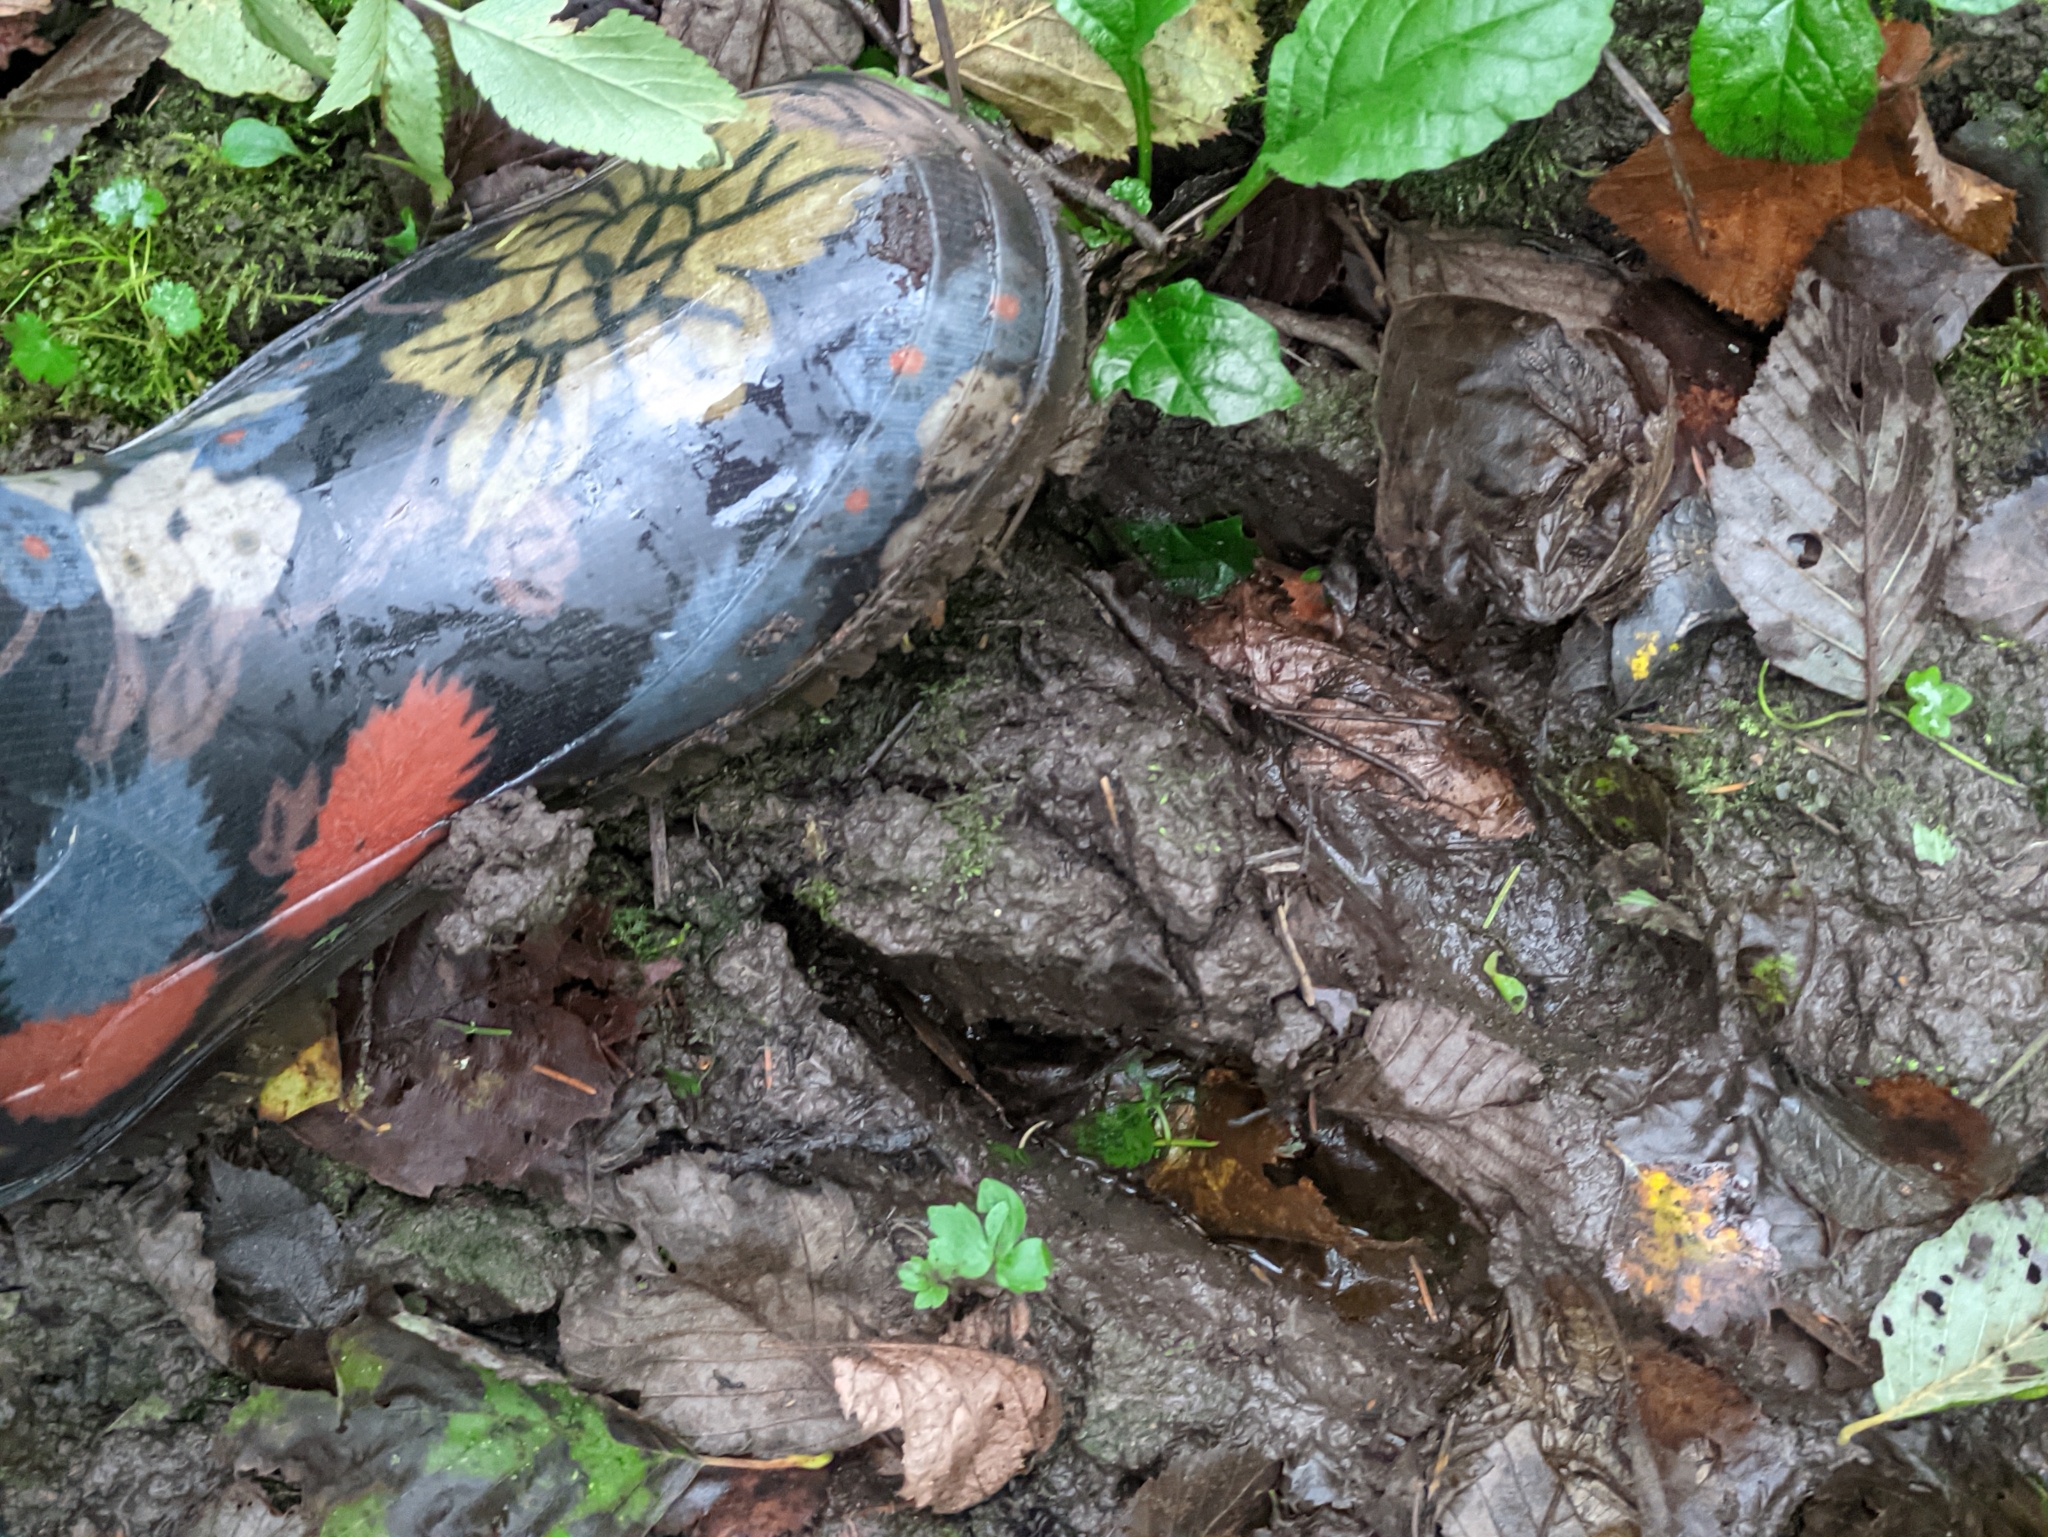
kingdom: Animalia
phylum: Chordata
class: Mammalia
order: Artiodactyla
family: Cervidae
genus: Alces
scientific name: Alces alces
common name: Moose
